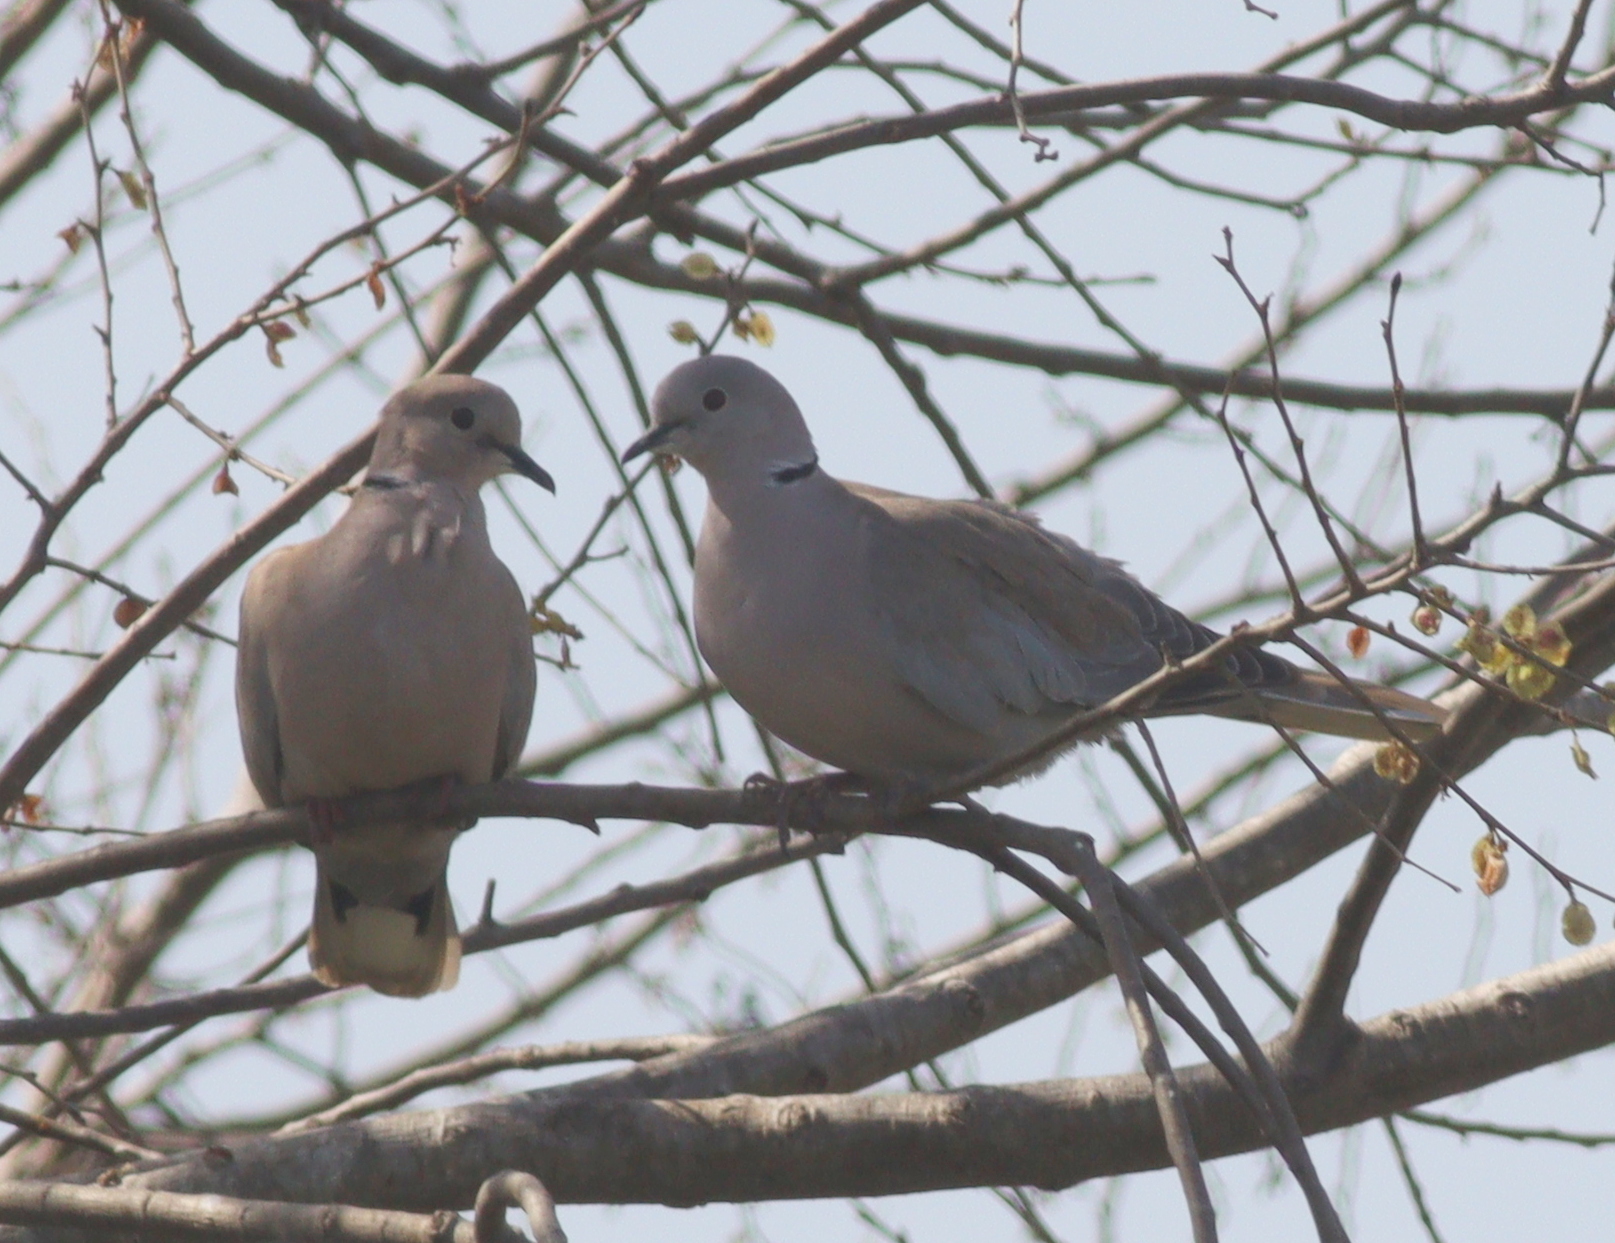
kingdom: Animalia
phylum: Chordata
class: Aves
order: Columbiformes
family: Columbidae
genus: Streptopelia
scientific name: Streptopelia decaocto
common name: Eurasian collared dove
